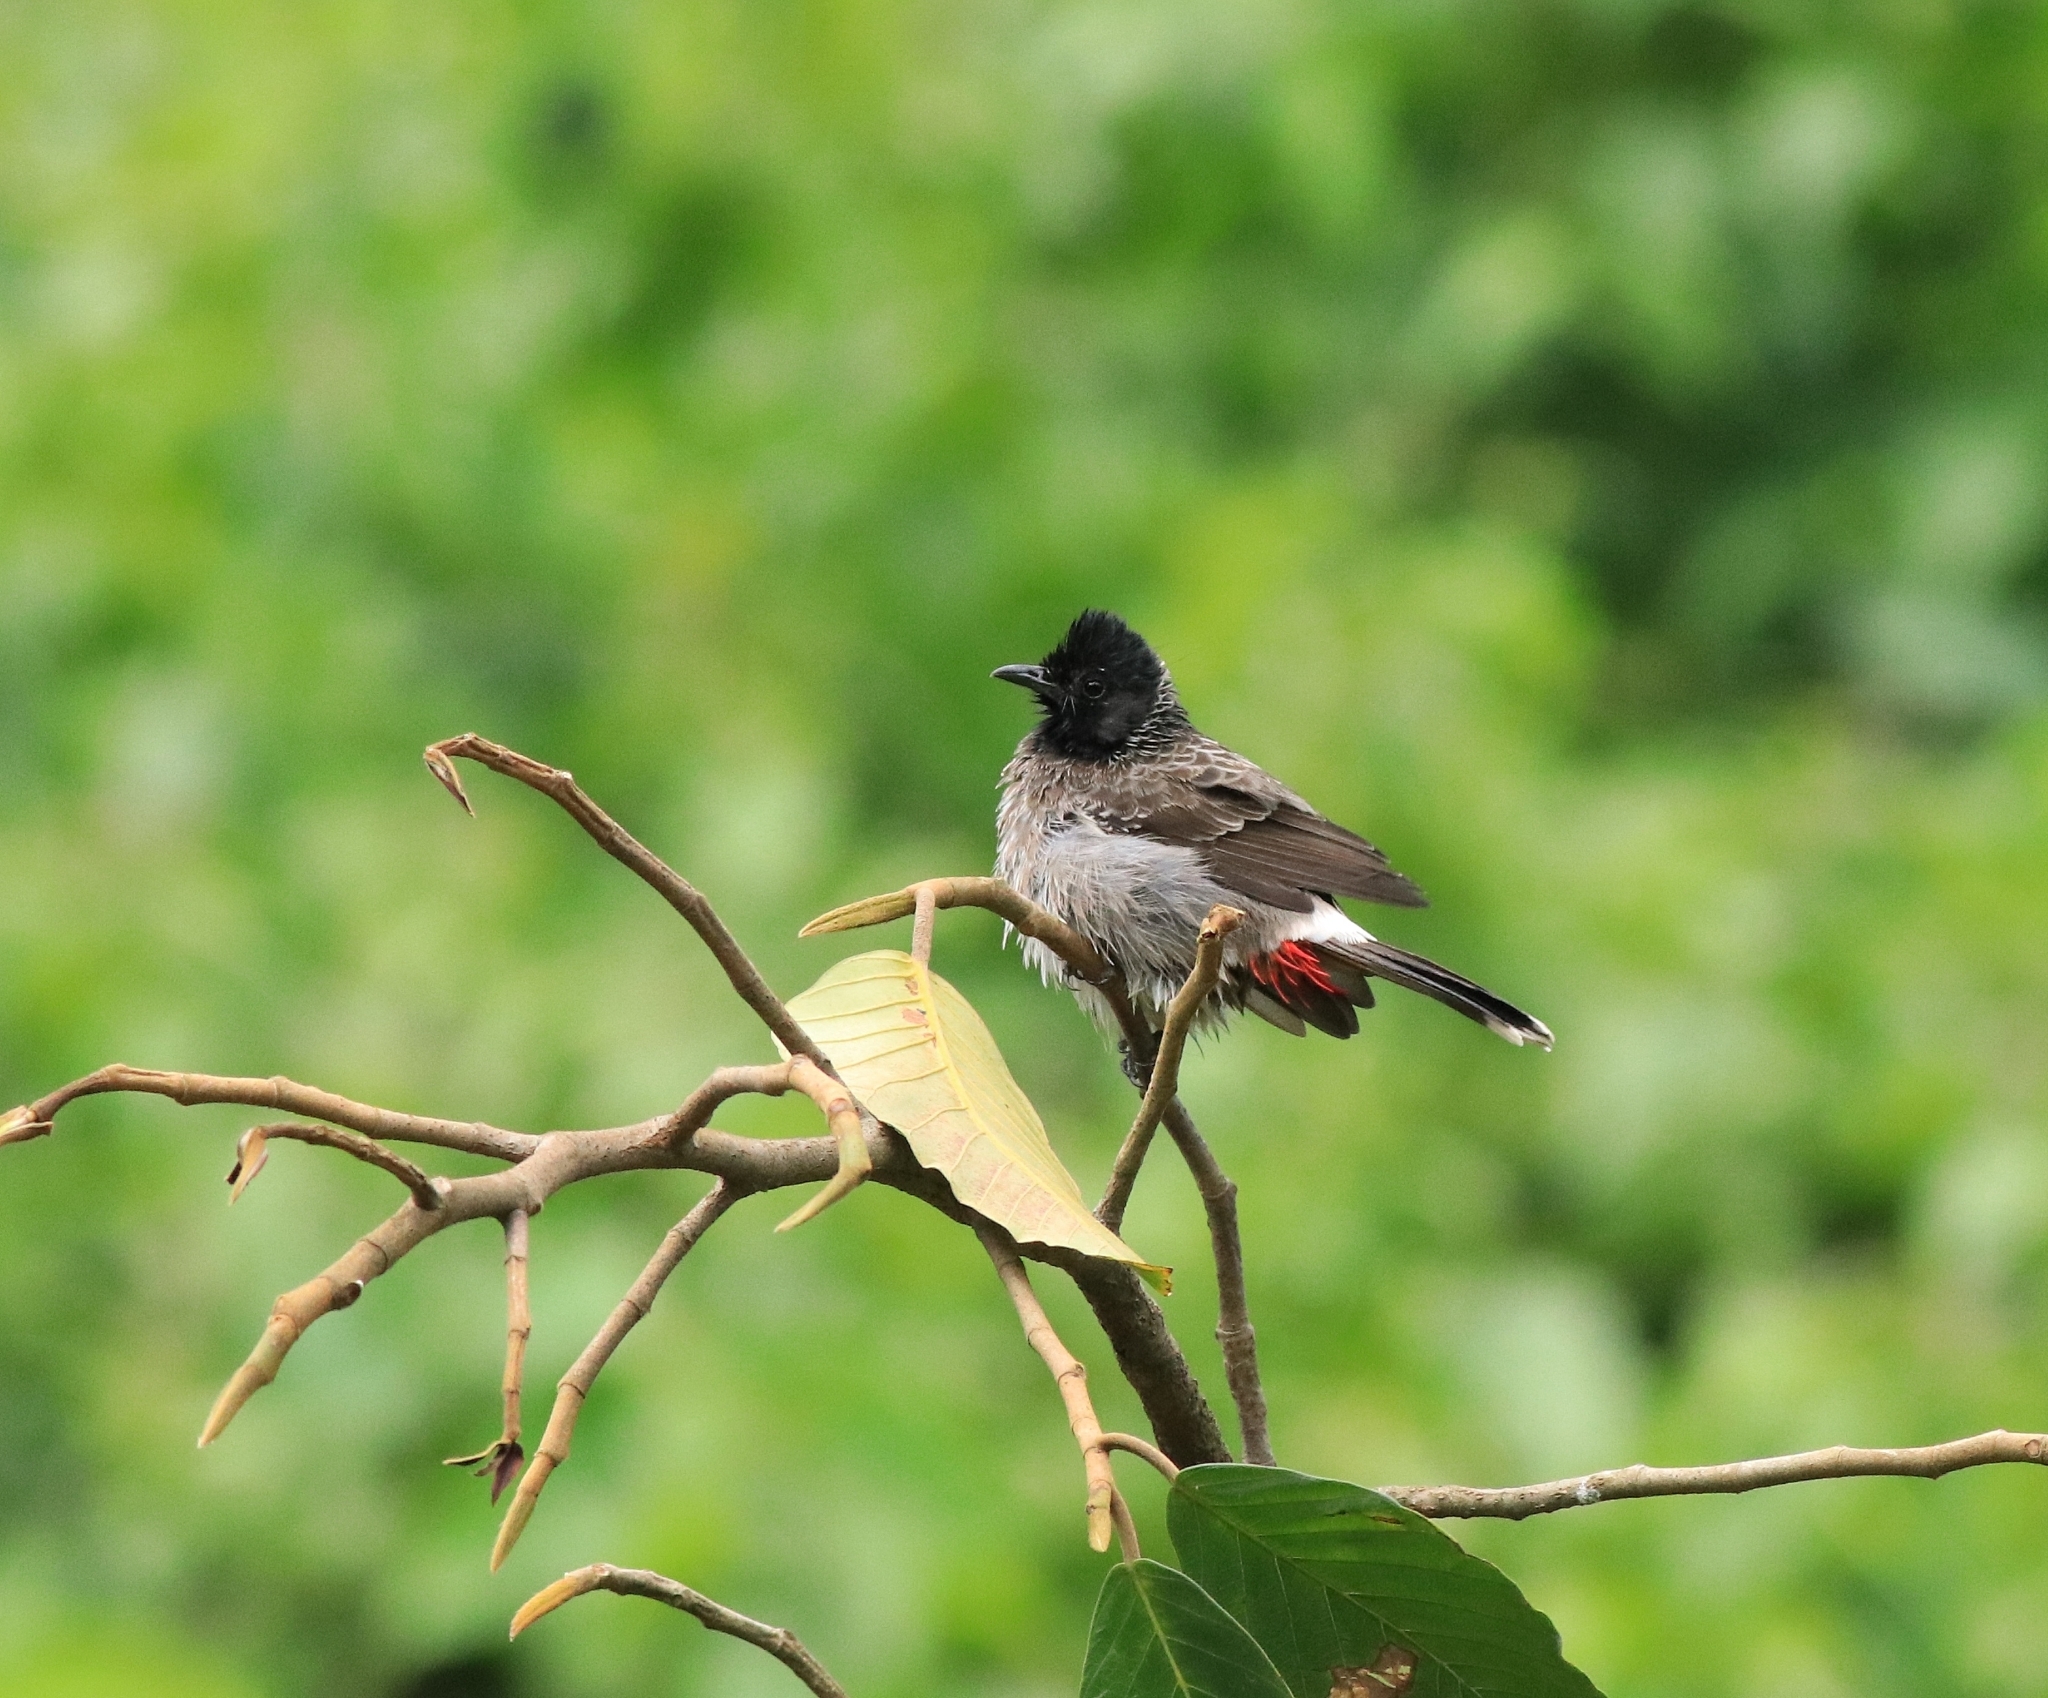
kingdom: Animalia
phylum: Chordata
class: Aves
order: Passeriformes
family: Pycnonotidae
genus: Pycnonotus
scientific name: Pycnonotus cafer
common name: Red-vented bulbul
